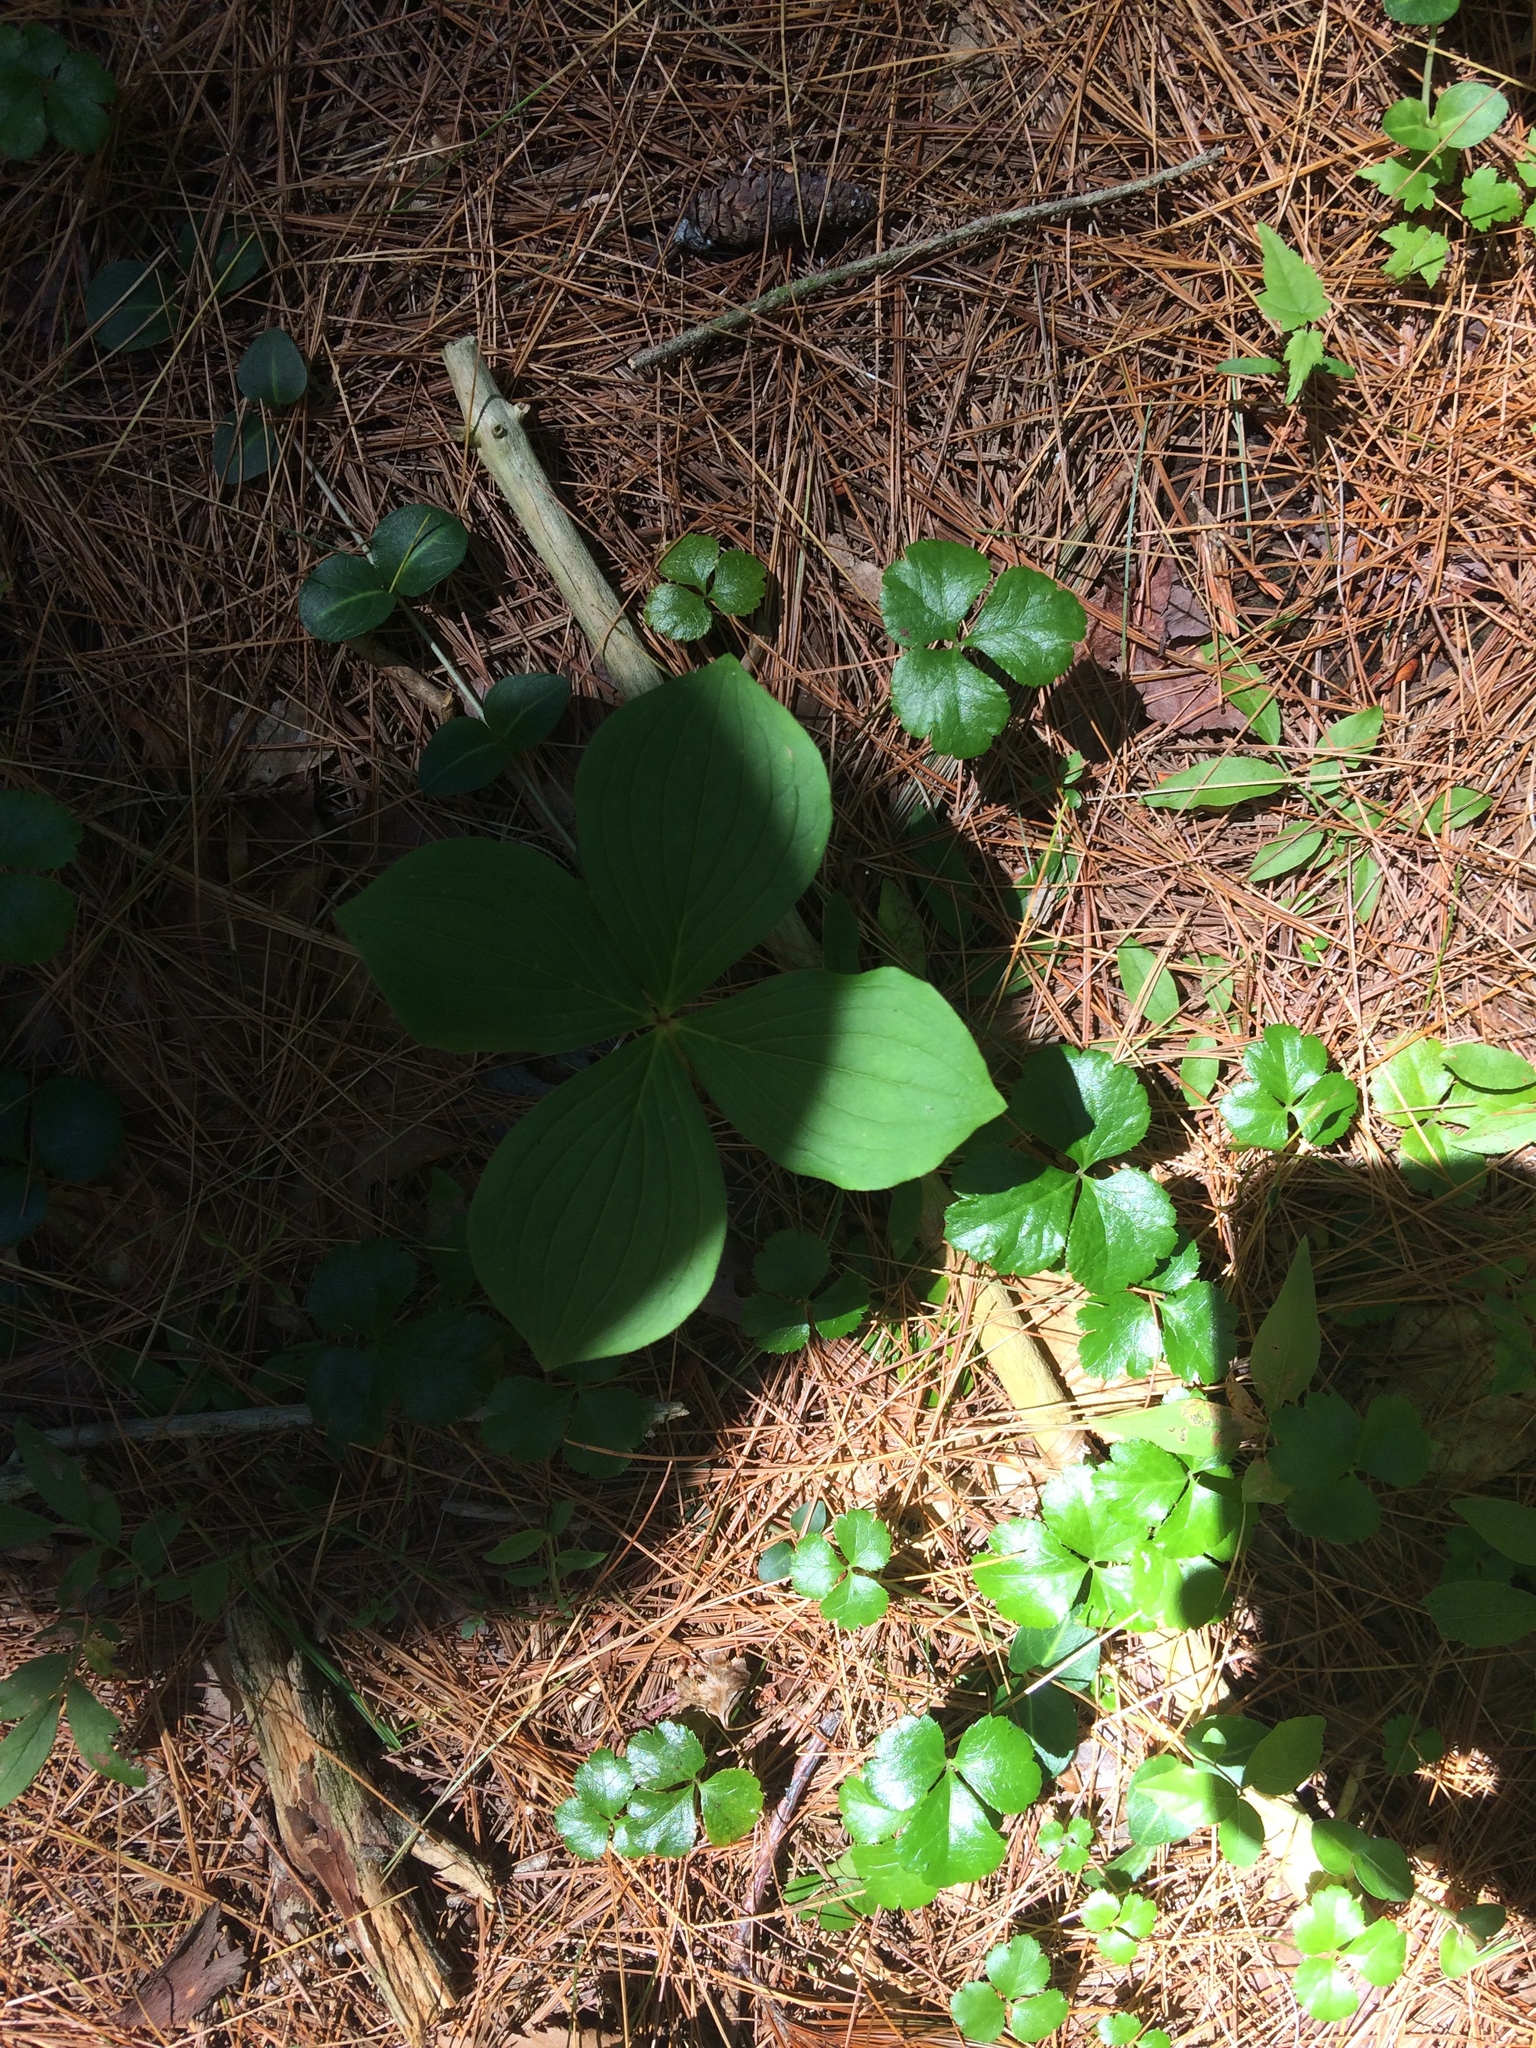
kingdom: Plantae
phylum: Tracheophyta
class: Magnoliopsida
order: Cornales
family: Cornaceae
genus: Cornus
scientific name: Cornus canadensis
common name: Creeping dogwood
